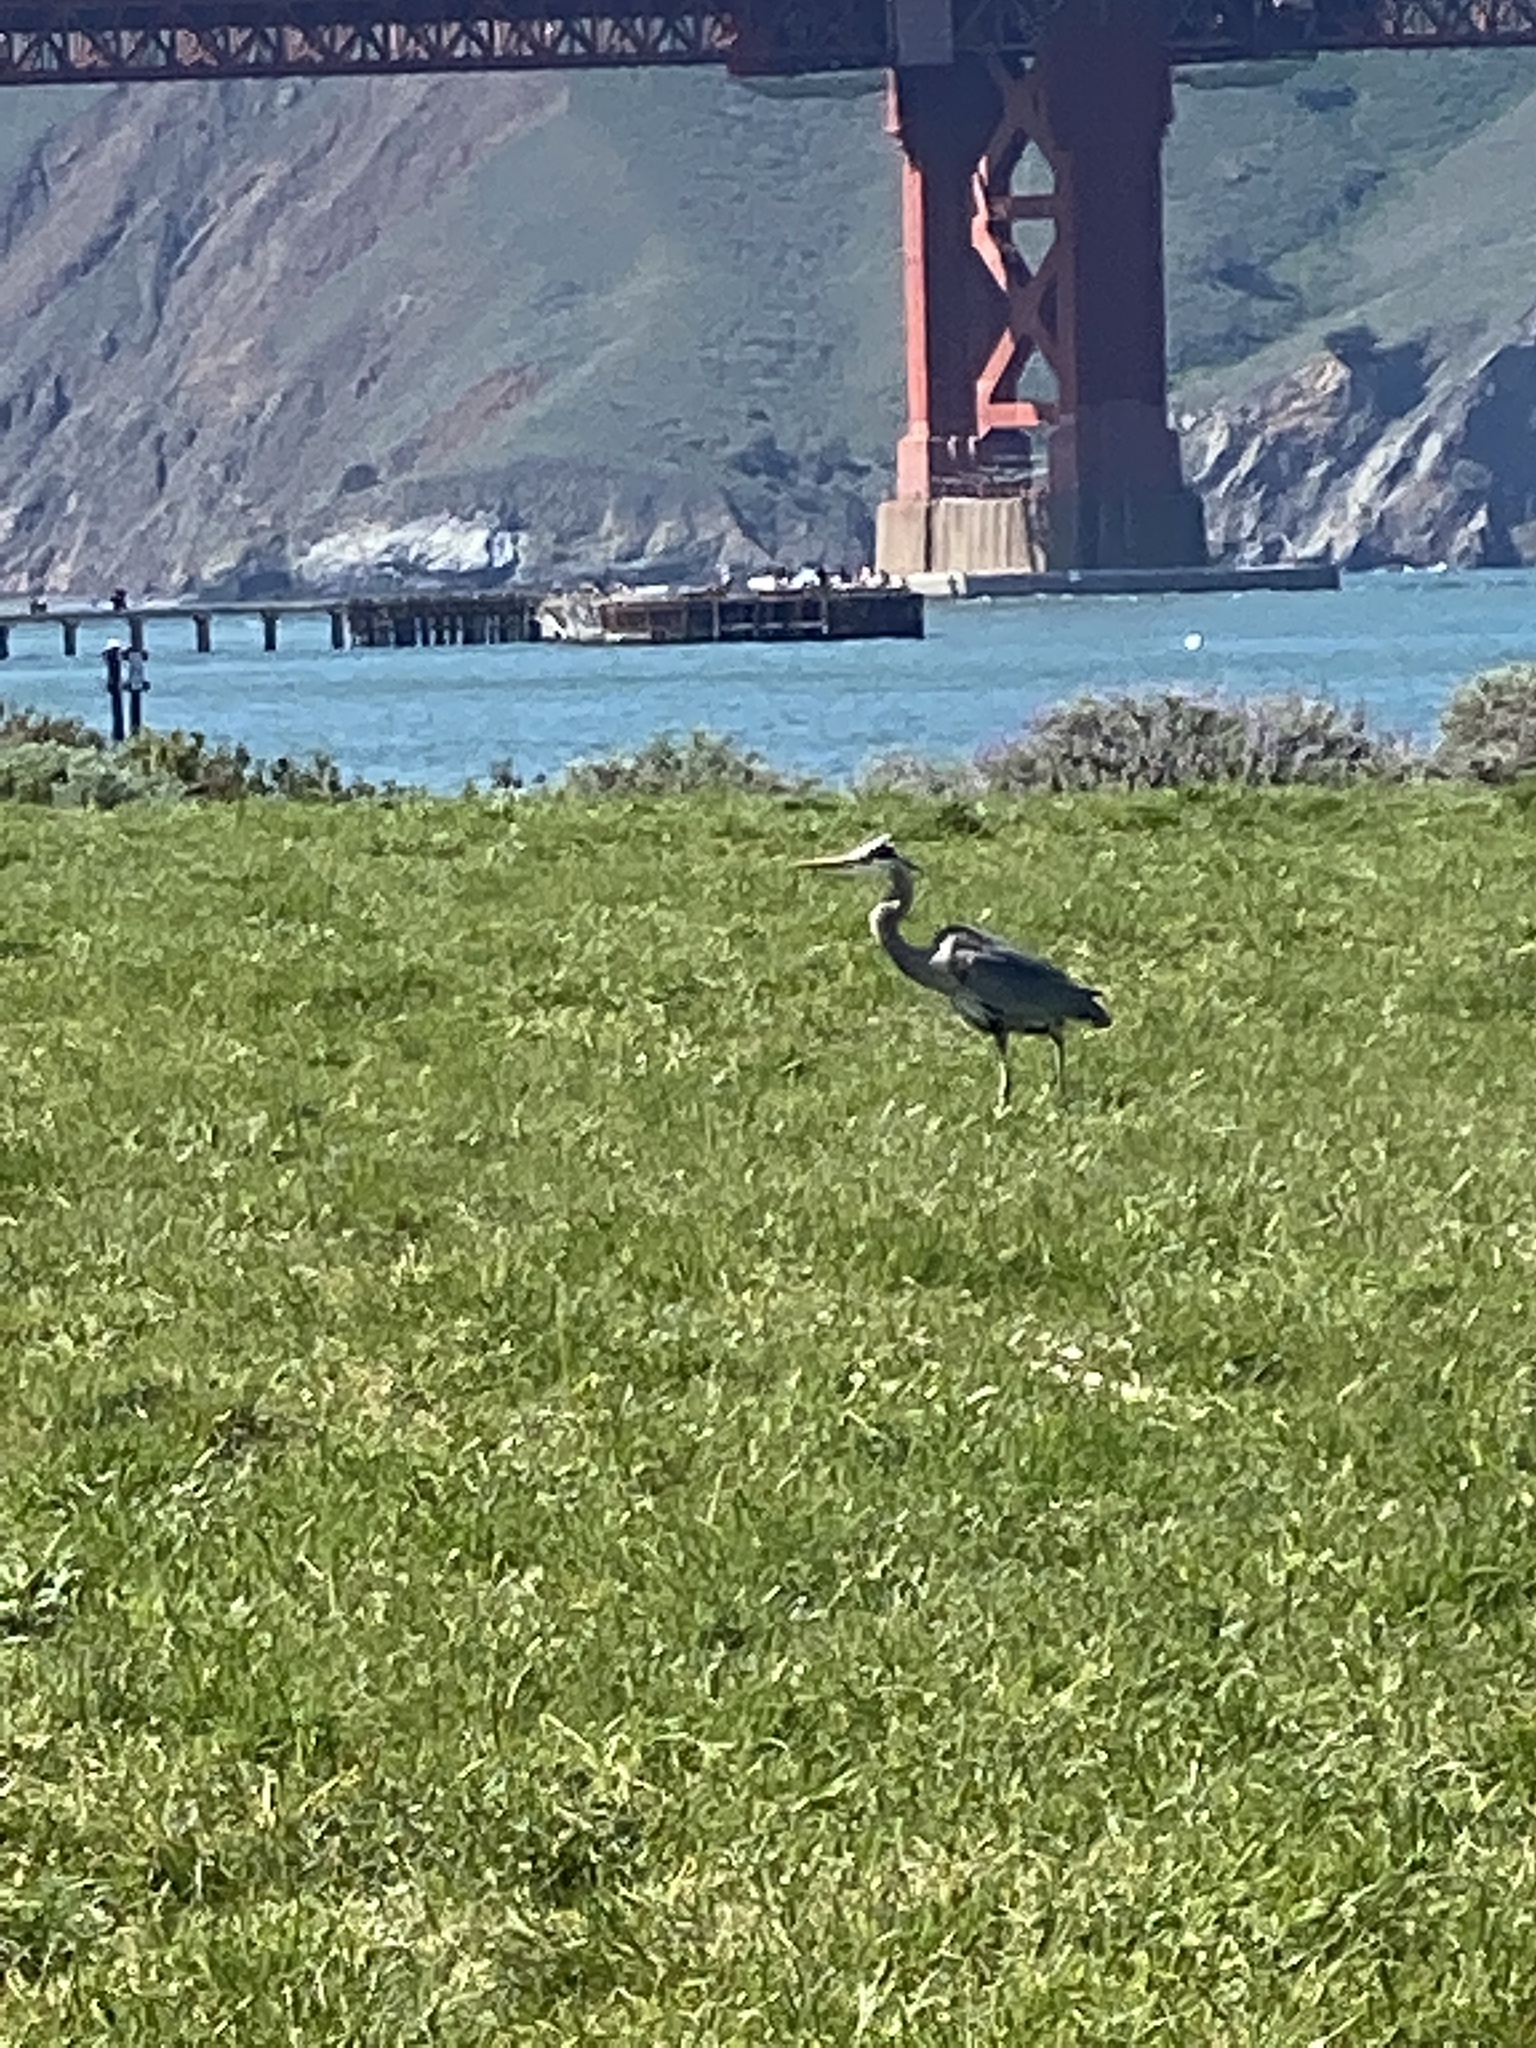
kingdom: Animalia
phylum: Chordata
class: Aves
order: Pelecaniformes
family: Ardeidae
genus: Ardea
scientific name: Ardea herodias
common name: Great blue heron
